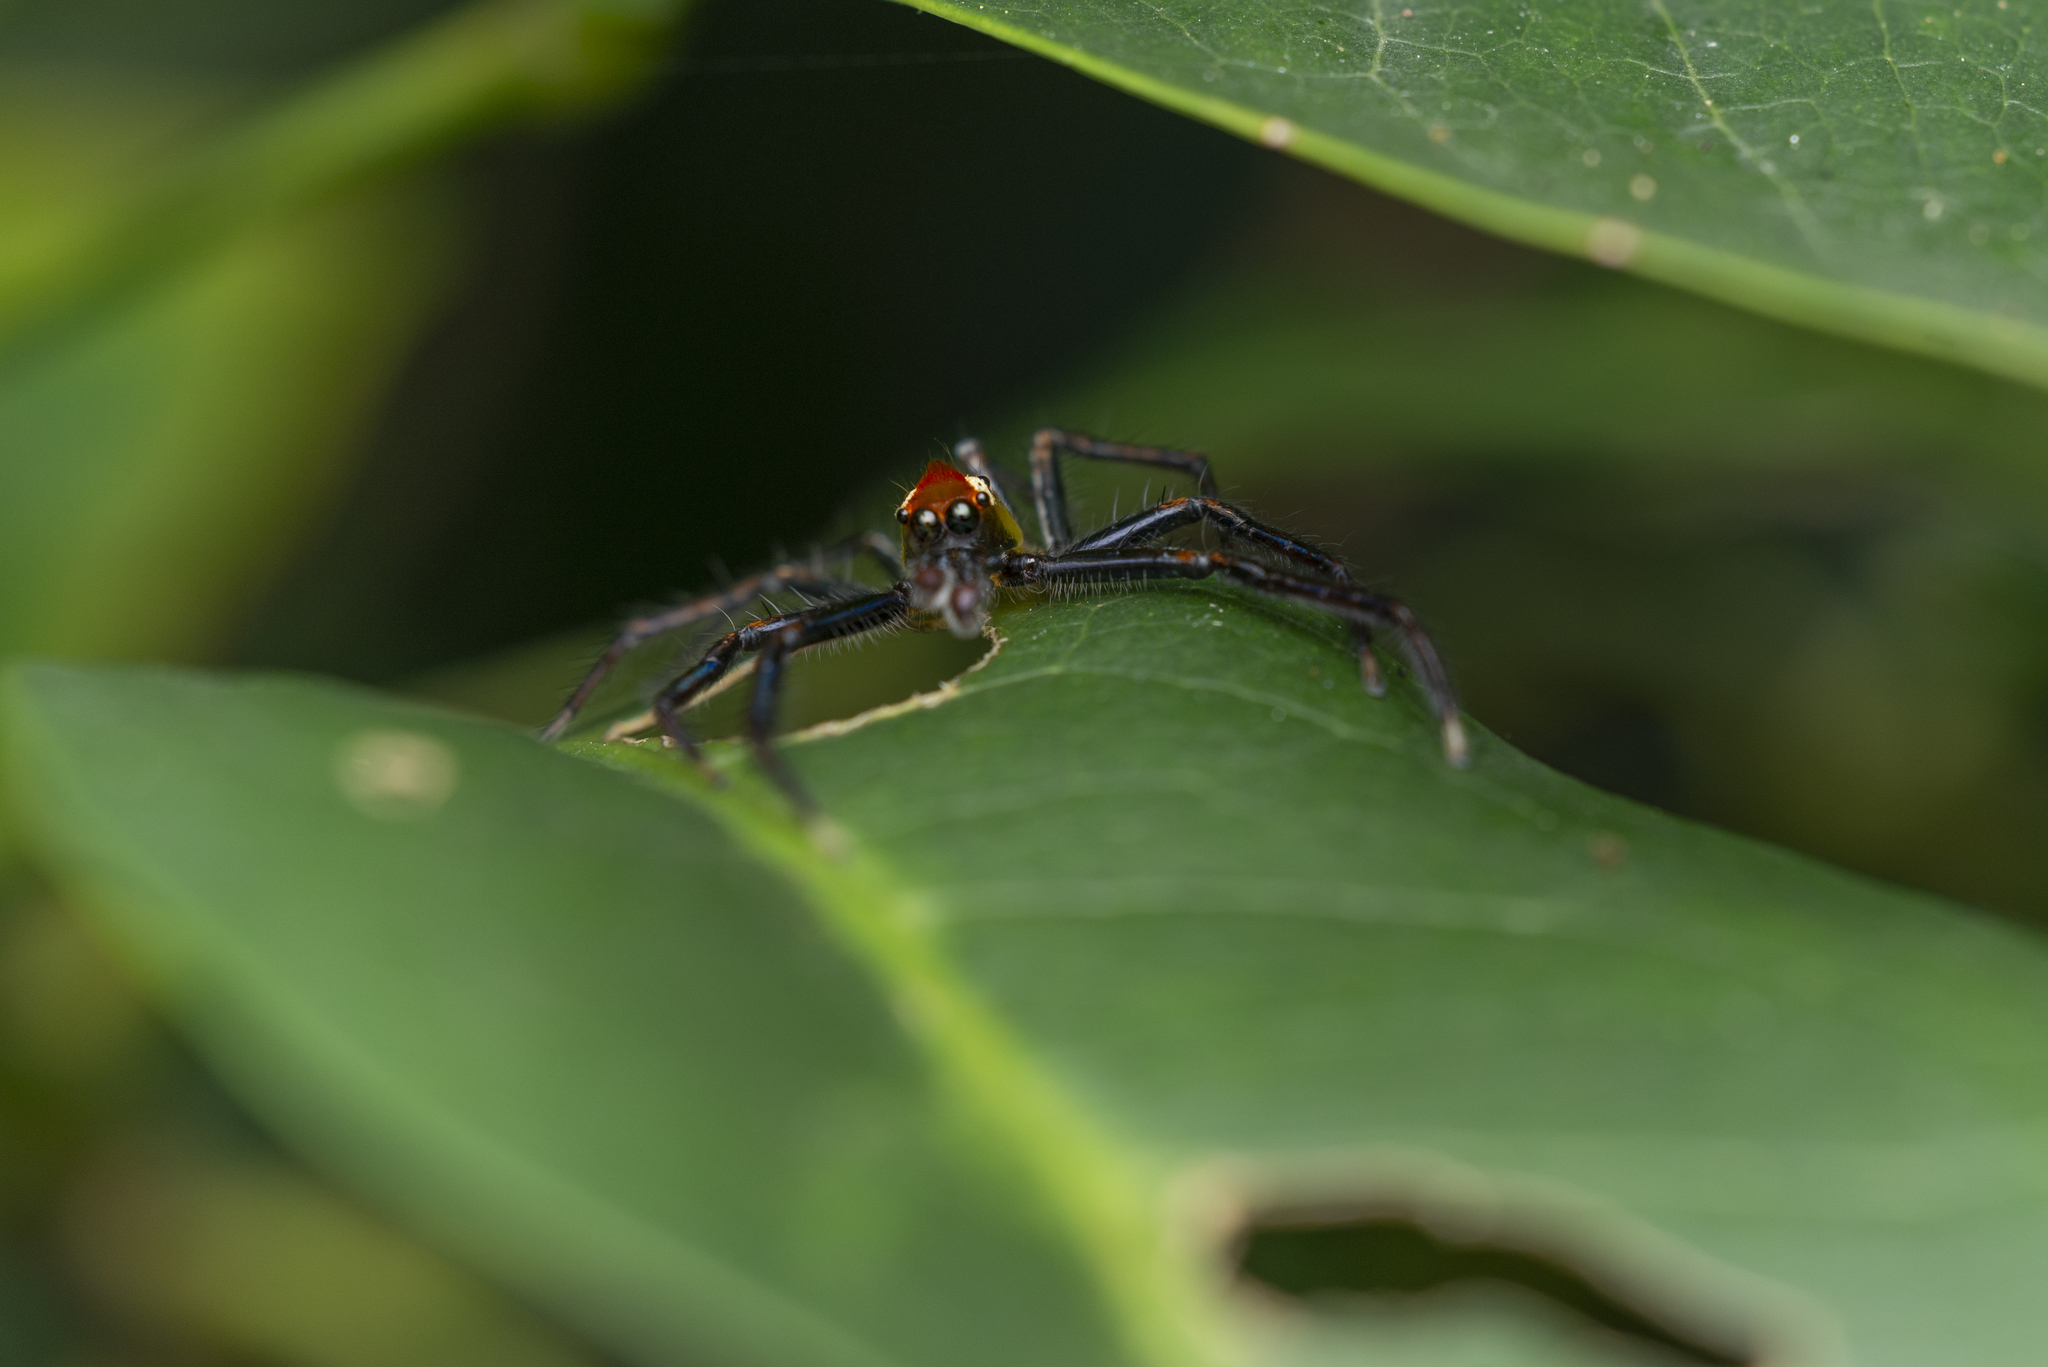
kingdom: Animalia
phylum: Arthropoda
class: Arachnida
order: Araneae
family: Salticidae
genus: Epeus
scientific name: Epeus glorius
